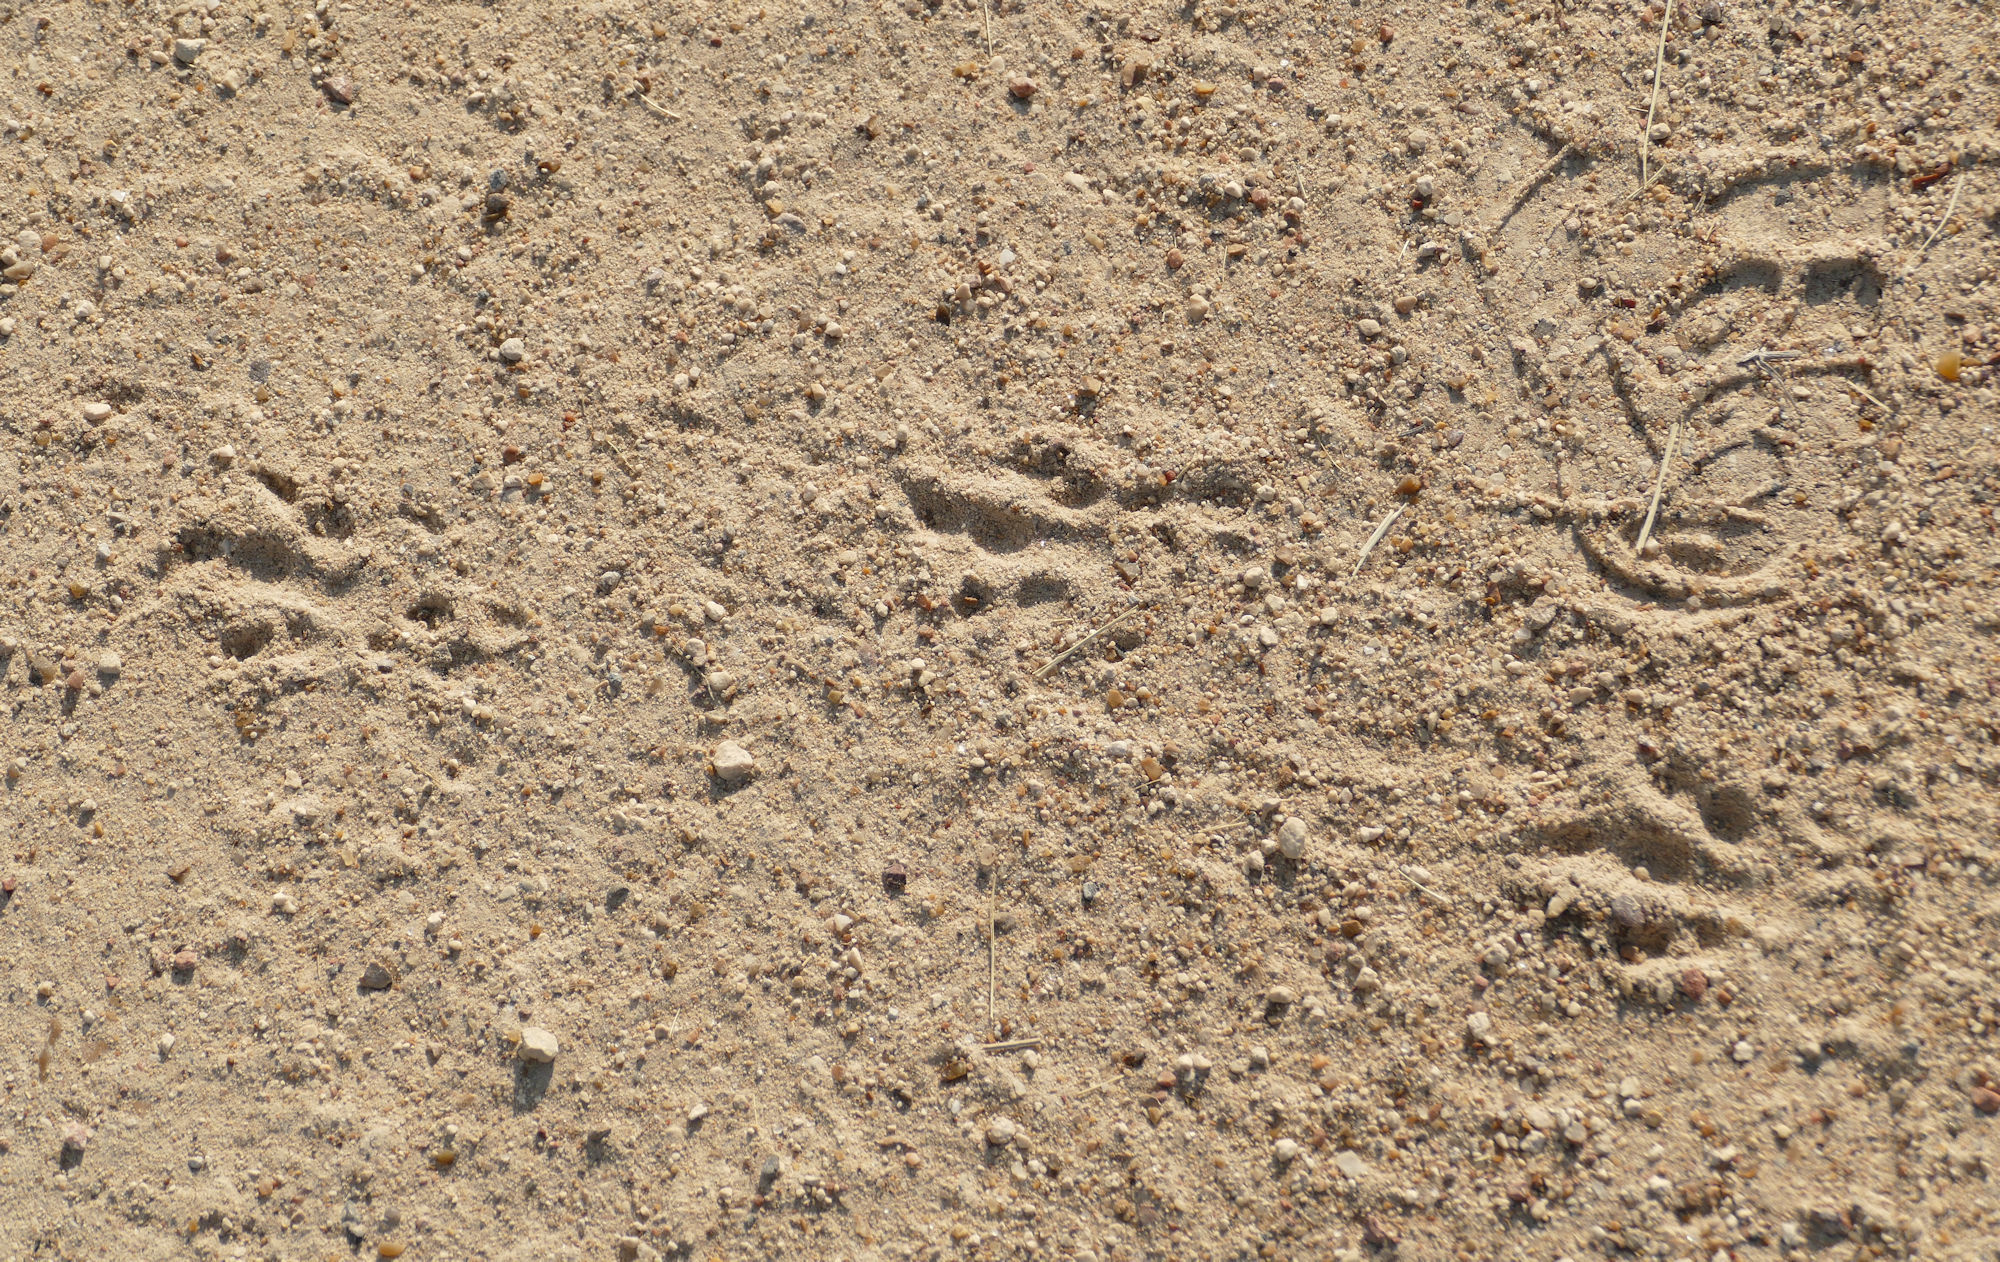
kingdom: Animalia
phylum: Chordata
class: Mammalia
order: Cingulata
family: Dasypodidae
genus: Dasypus
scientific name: Dasypus novemcinctus
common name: Nine-banded armadillo
